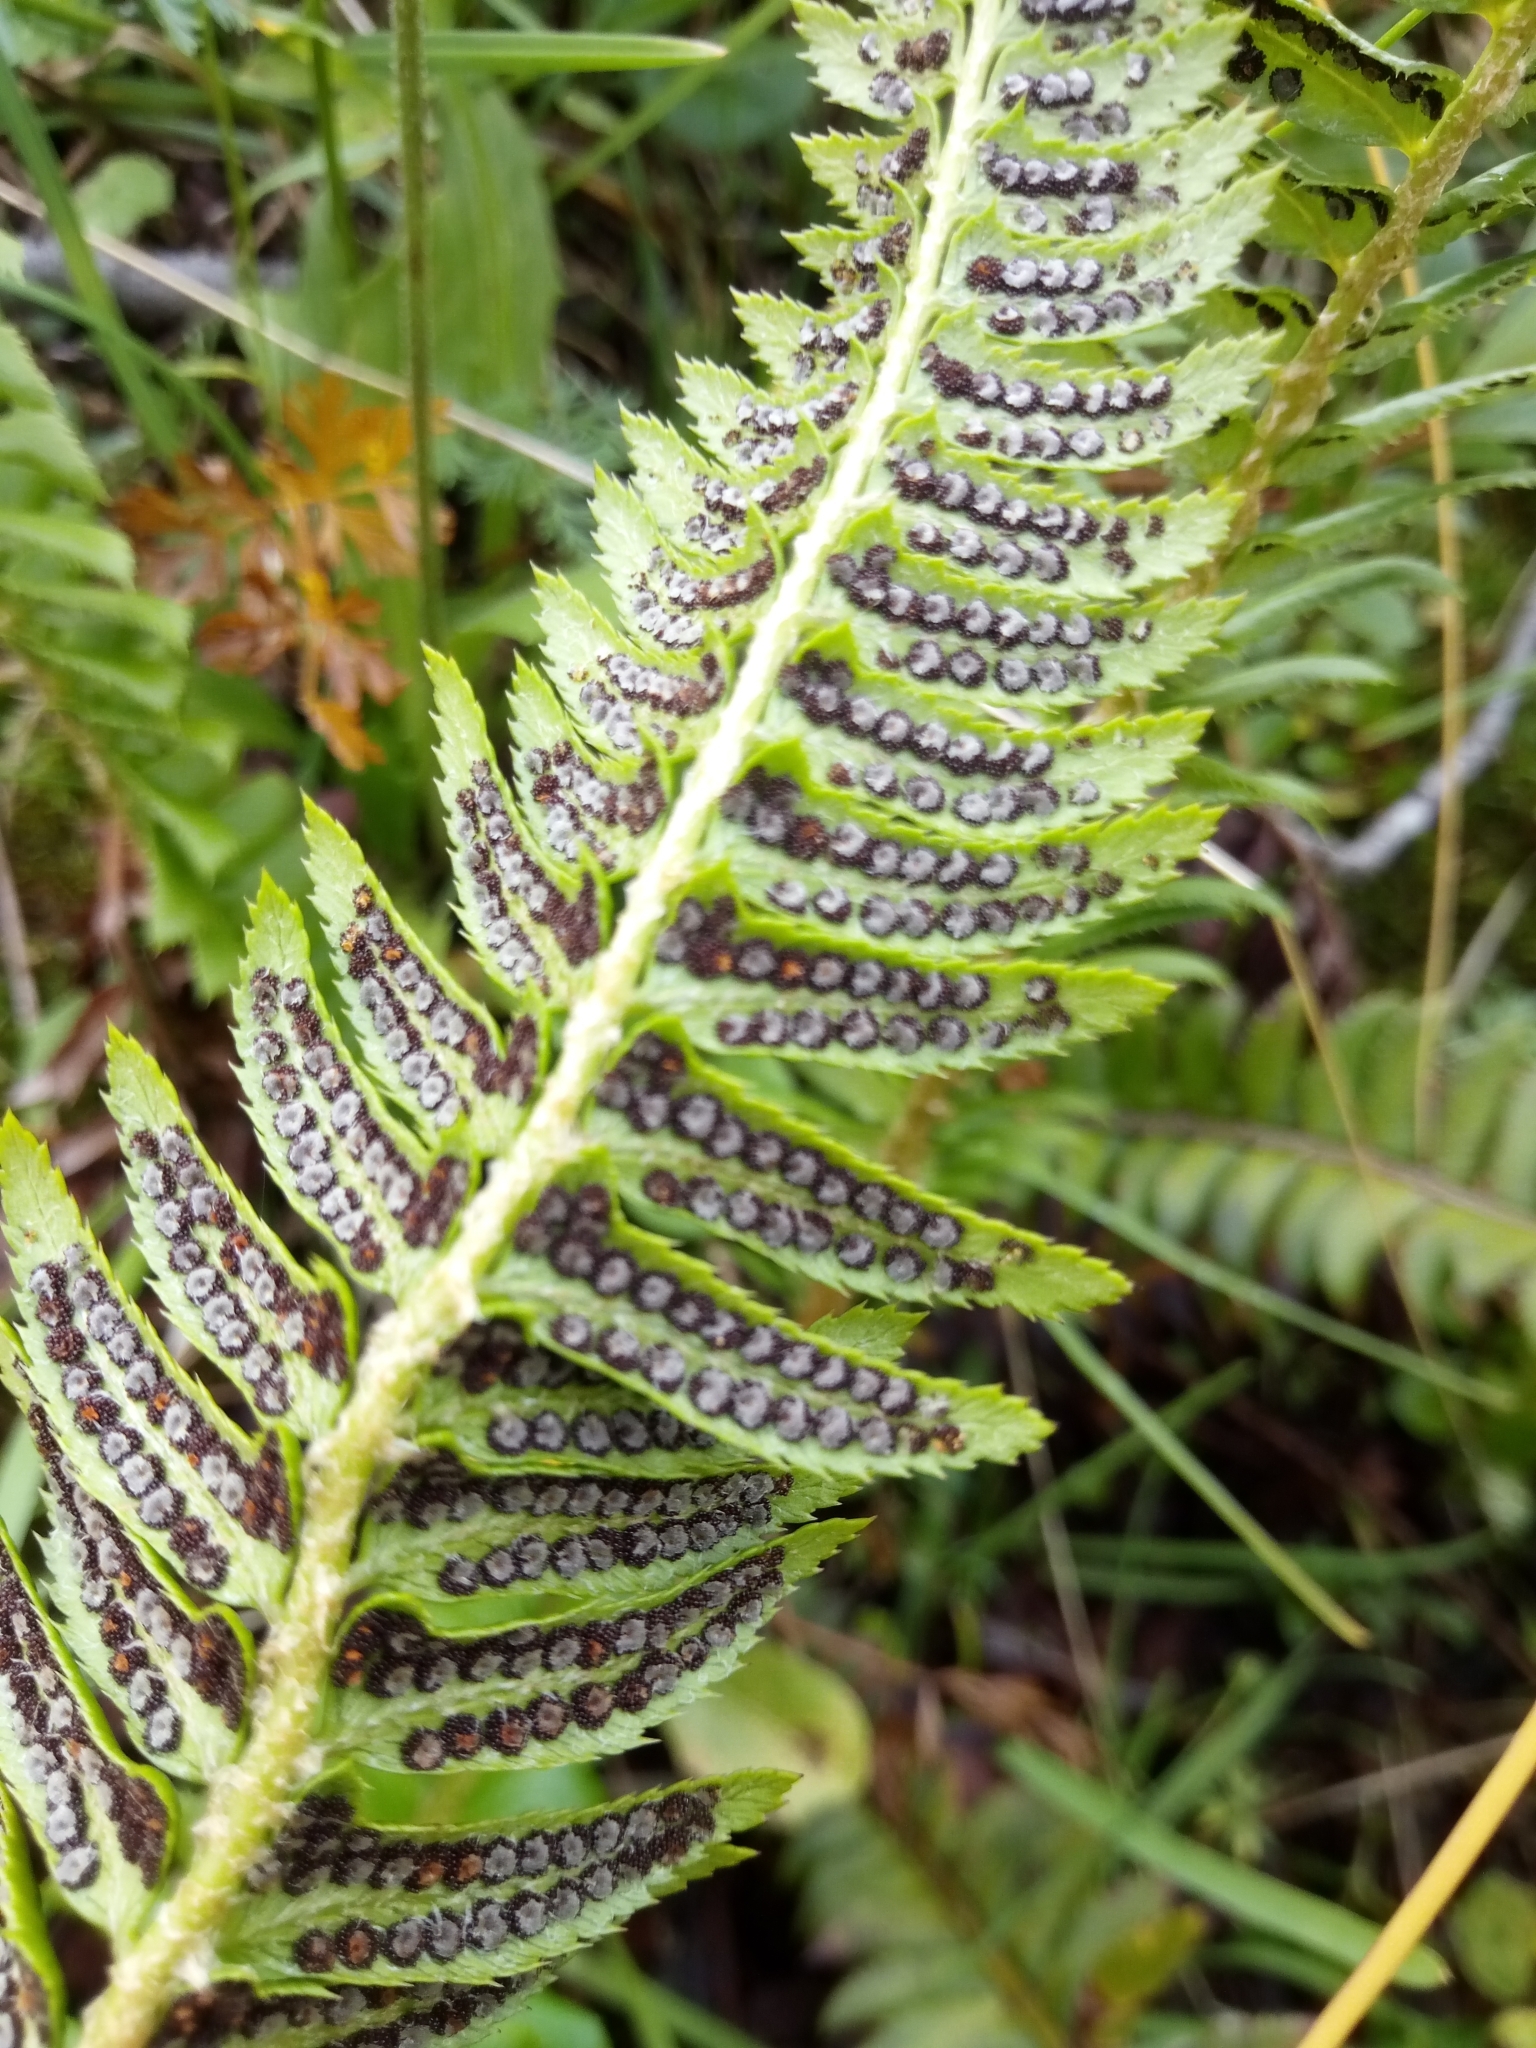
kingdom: Plantae
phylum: Tracheophyta
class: Polypodiopsida
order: Polypodiales
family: Dryopteridaceae
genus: Polystichum
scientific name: Polystichum lonchitis
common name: Holly fern
